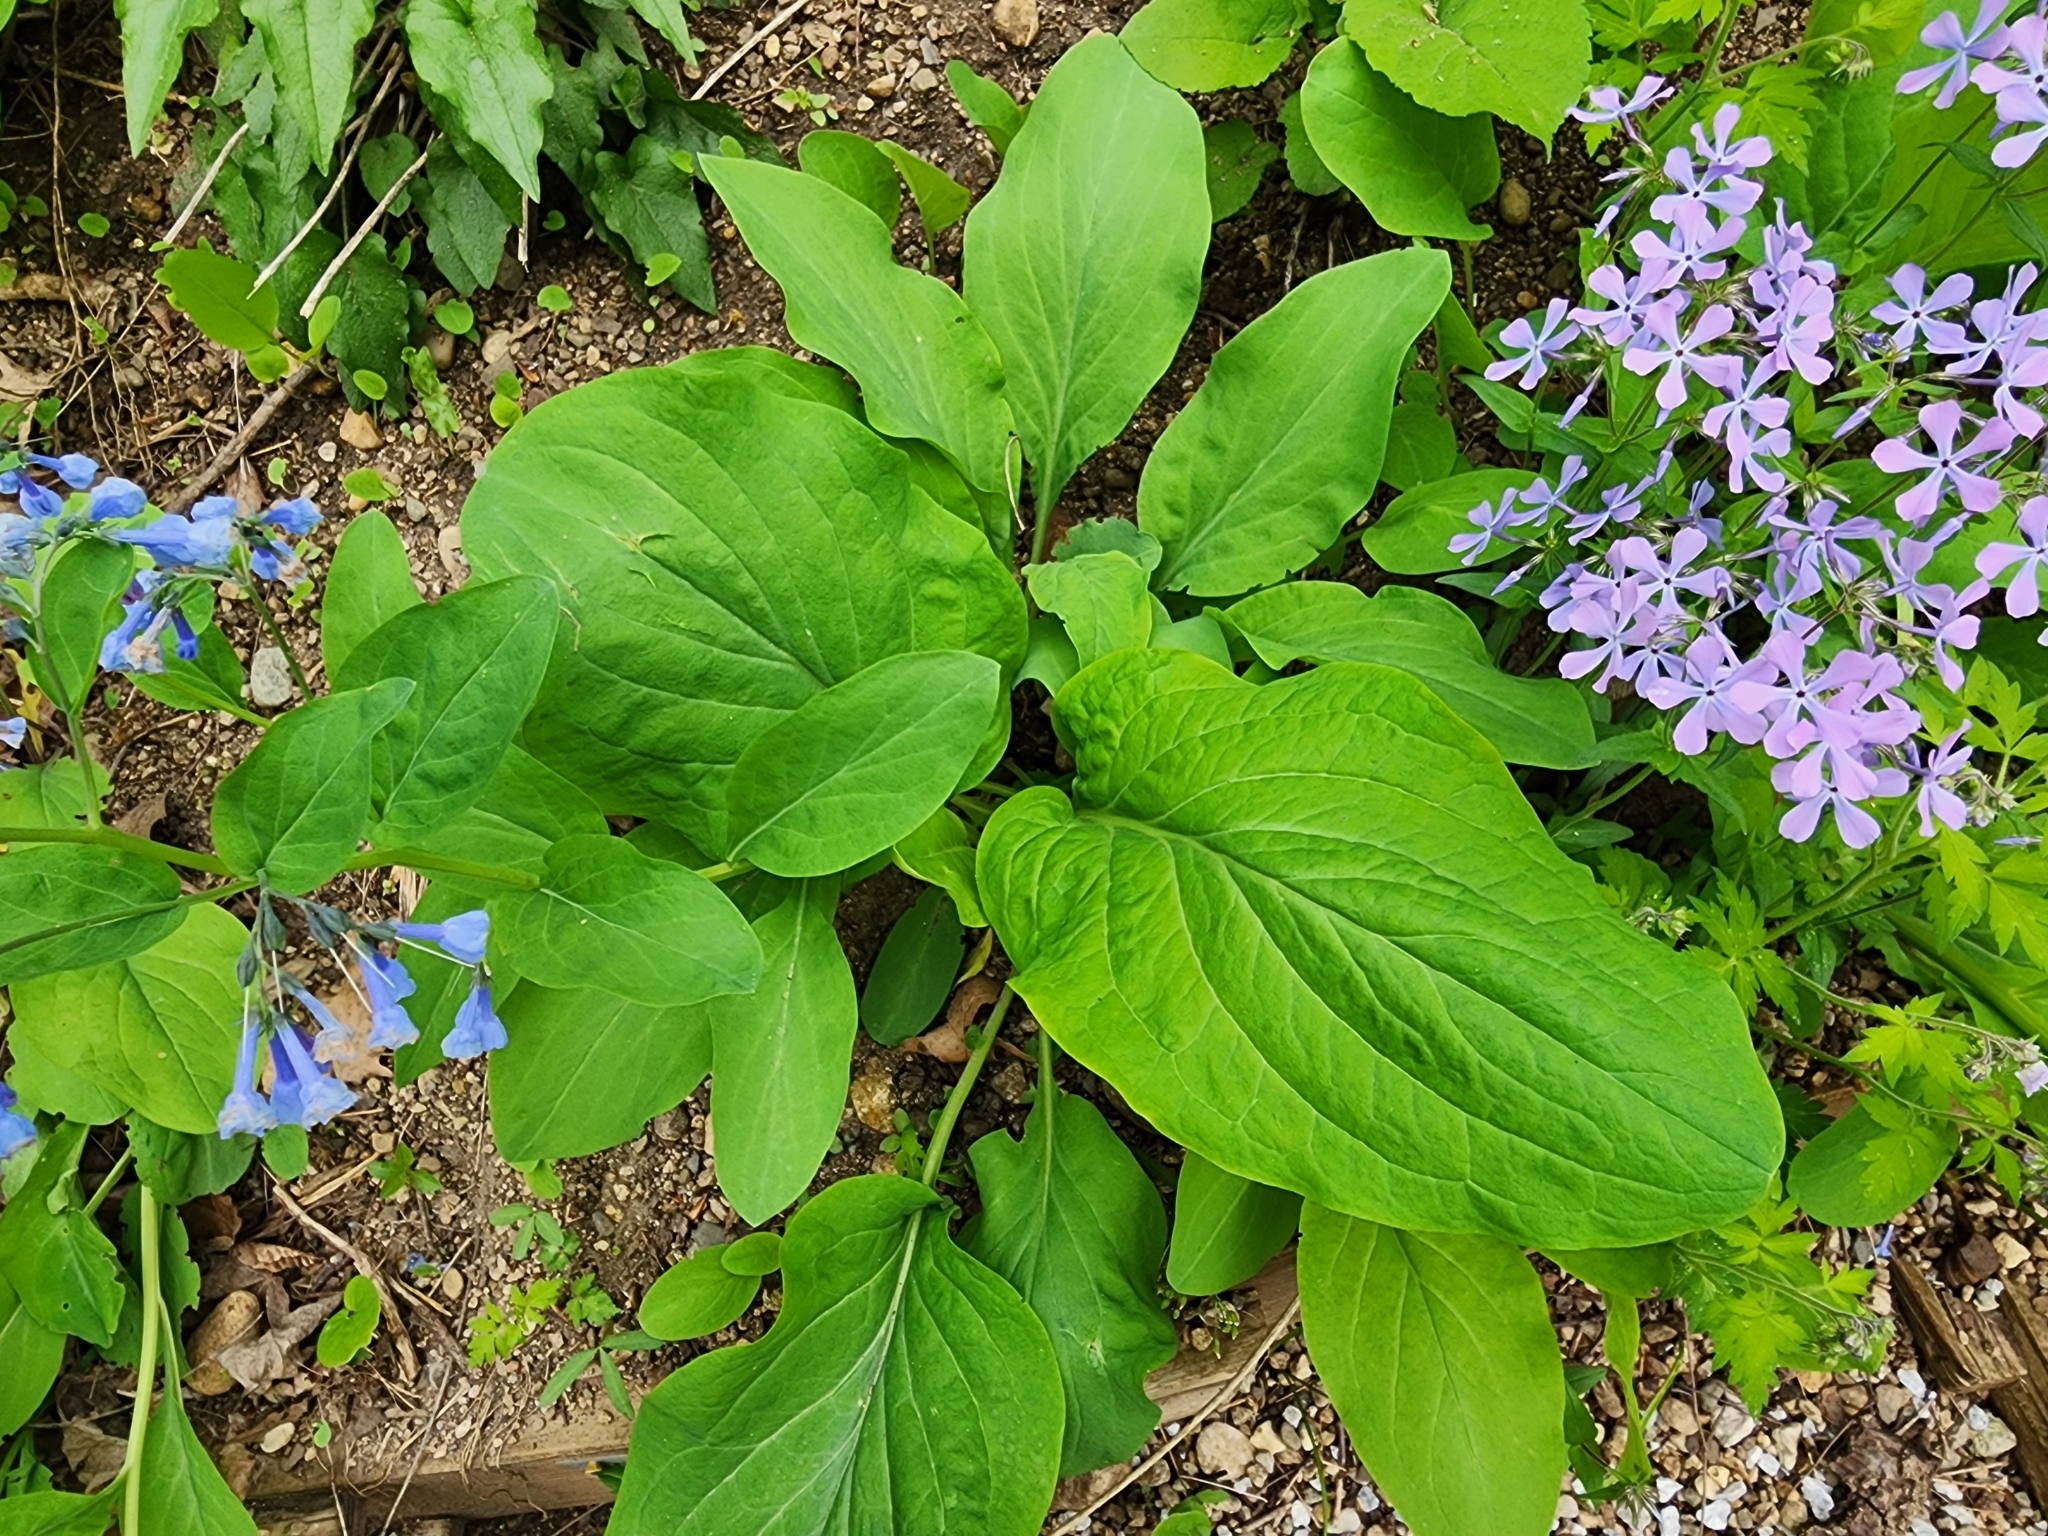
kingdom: Plantae
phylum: Tracheophyta
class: Magnoliopsida
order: Boraginales
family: Boraginaceae
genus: Mertensia
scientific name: Mertensia virginica
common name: Virginia bluebells
